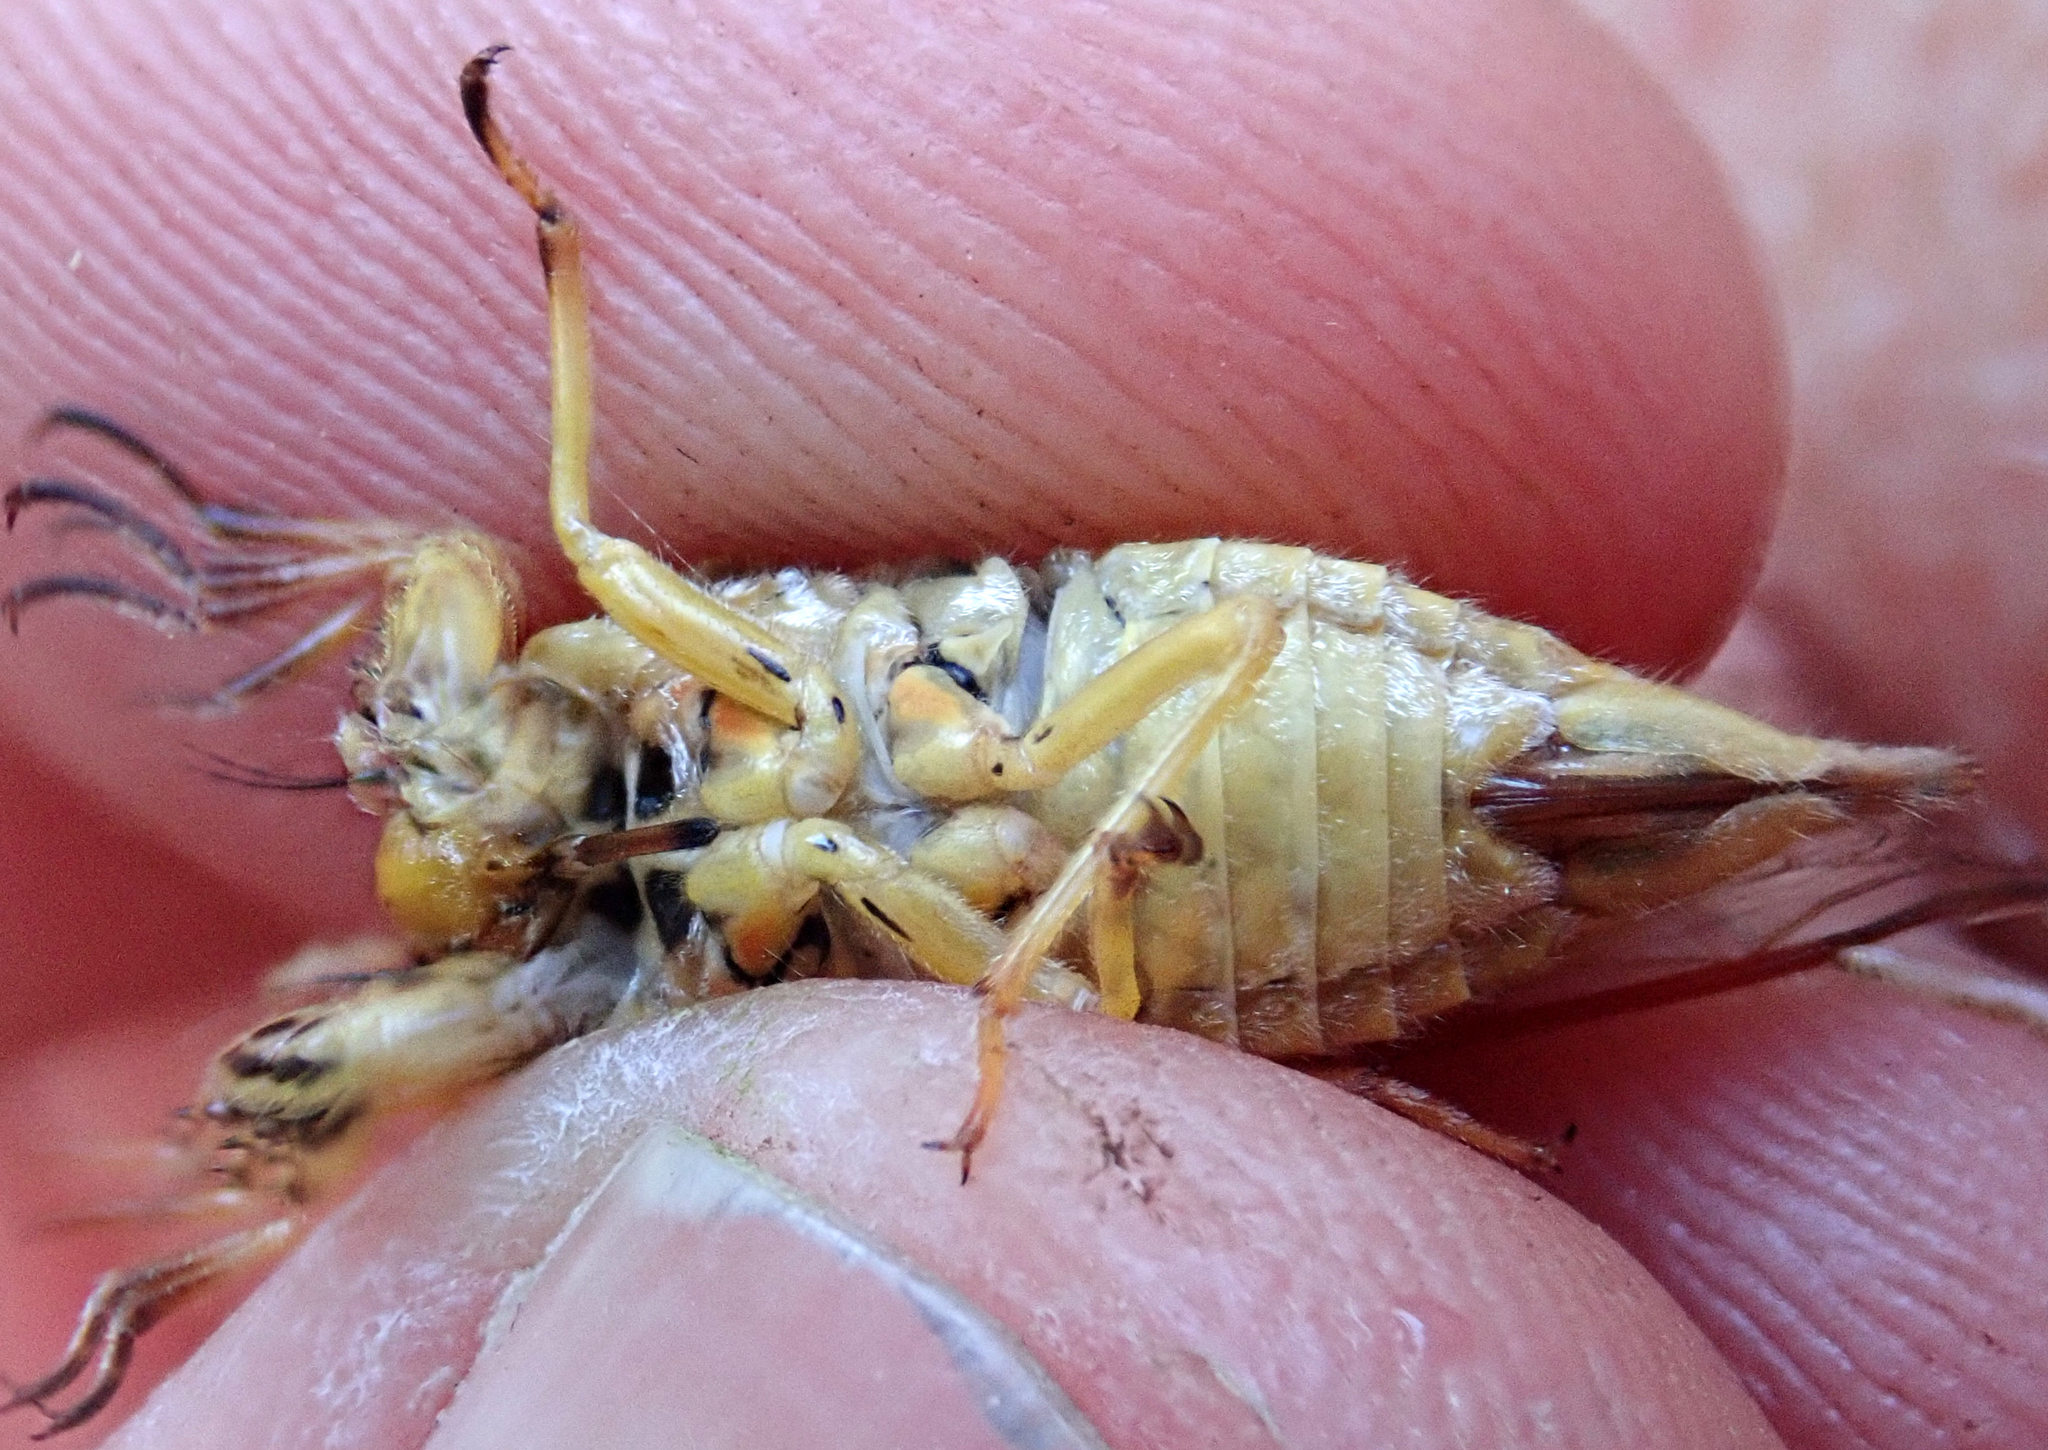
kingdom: Animalia
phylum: Arthropoda
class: Insecta
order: Hemiptera
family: Cicadidae
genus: Kikihia
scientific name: Kikihia cutora
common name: Northern snoring cicada
